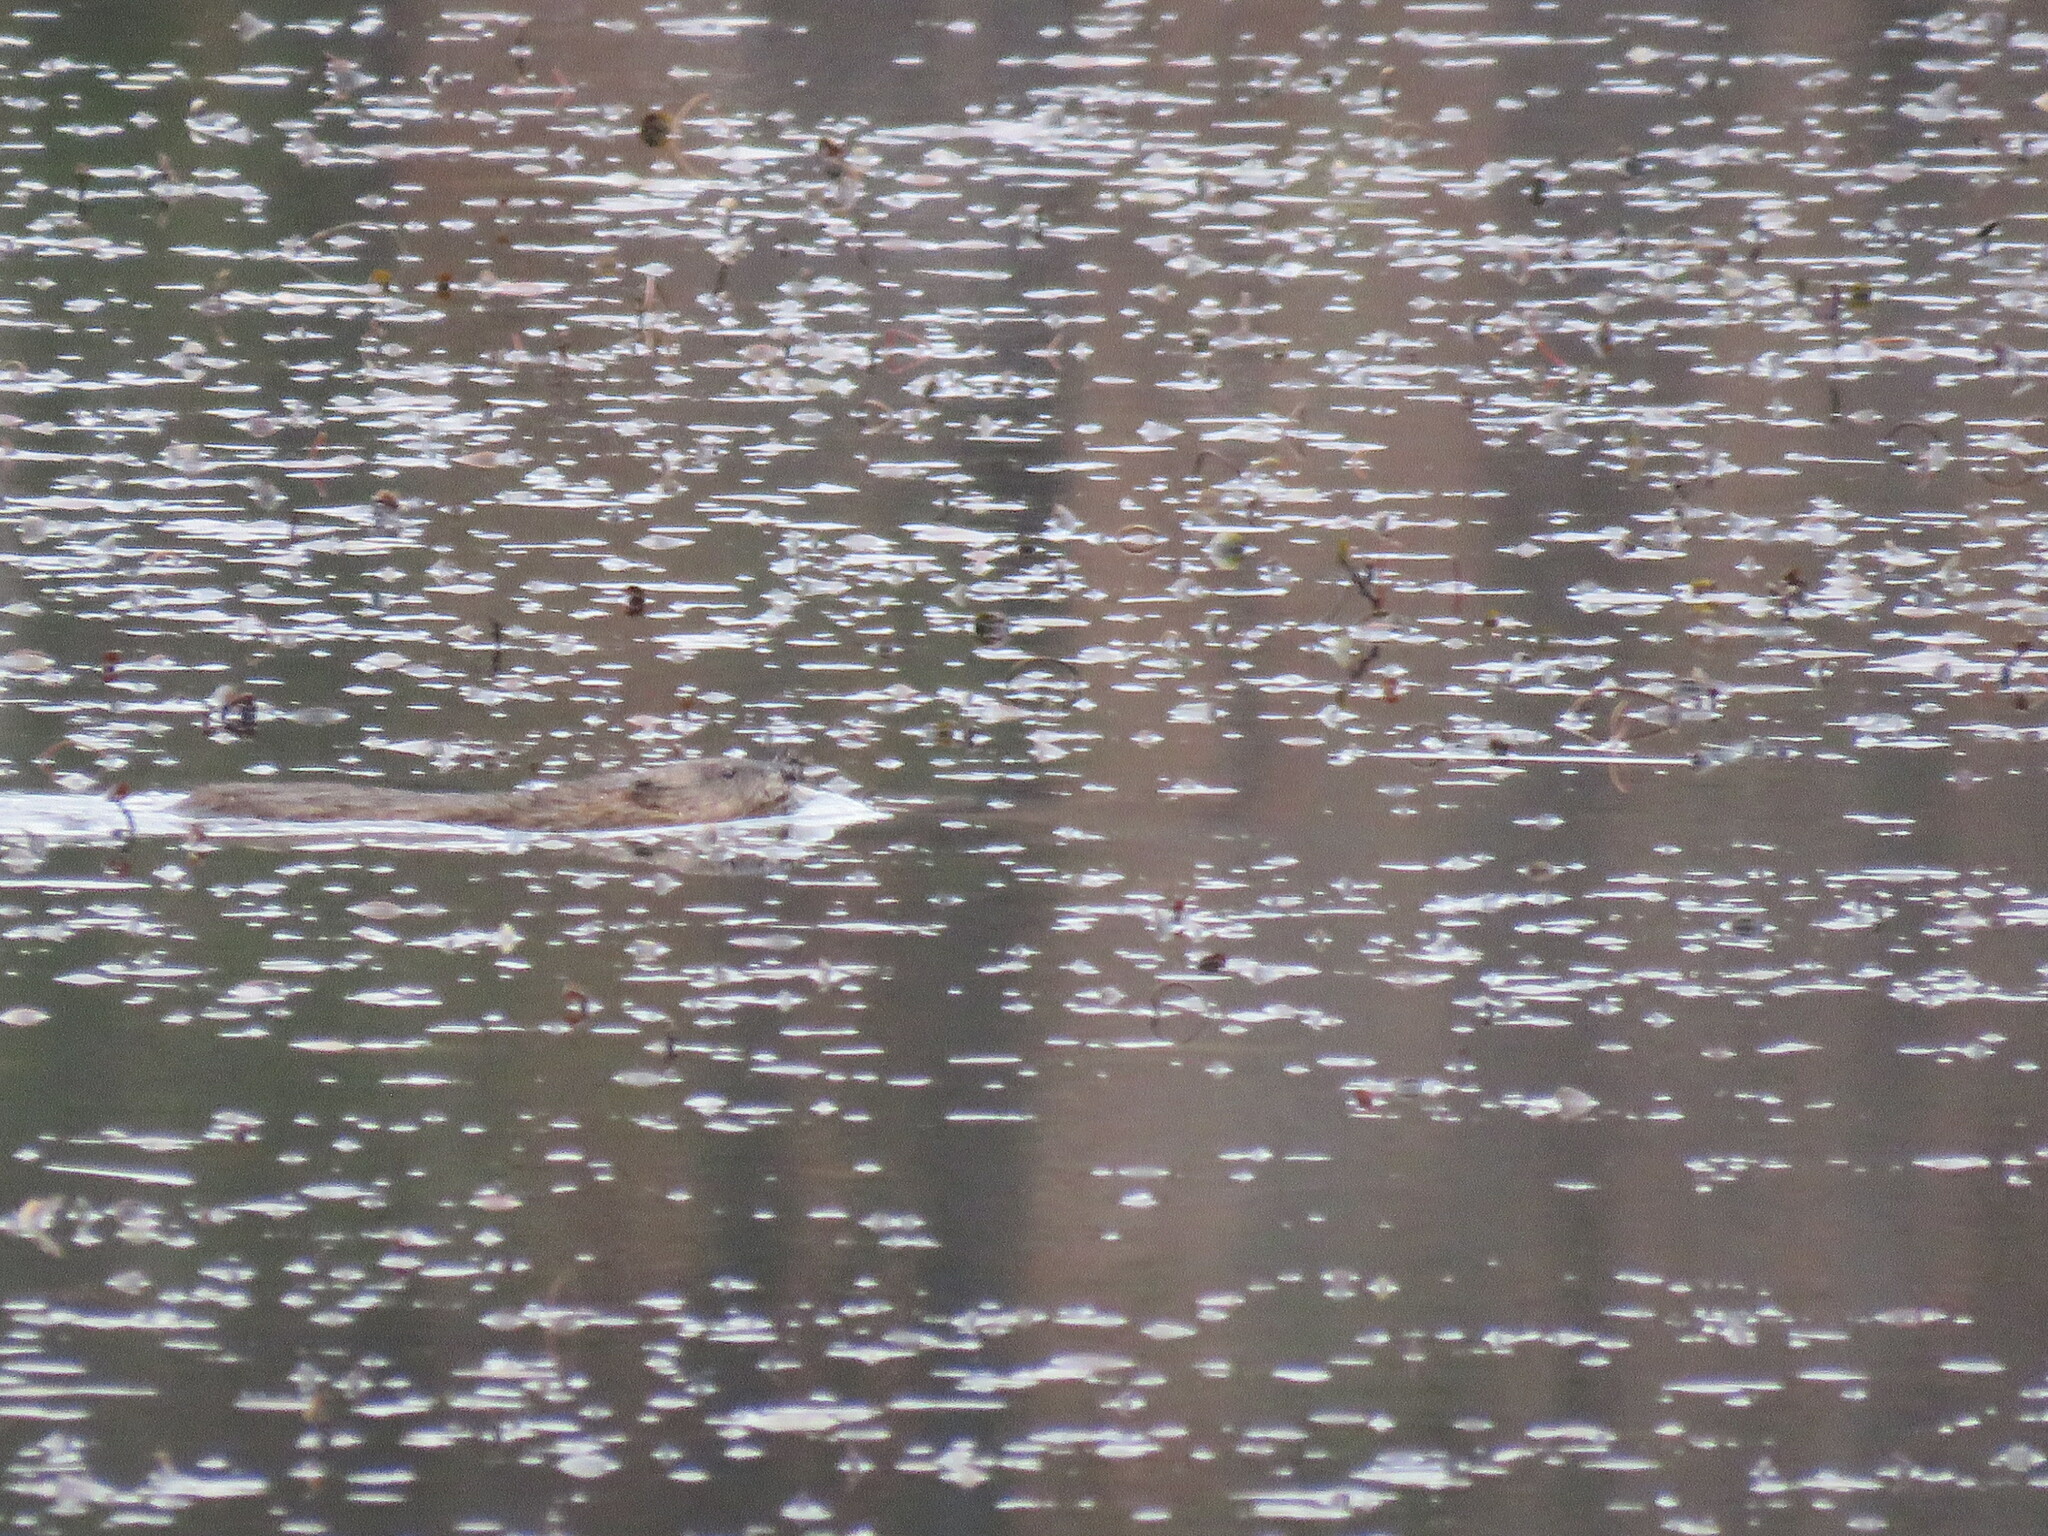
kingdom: Animalia
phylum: Chordata
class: Mammalia
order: Rodentia
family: Cricetidae
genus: Ondatra
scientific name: Ondatra zibethicus
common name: Muskrat
